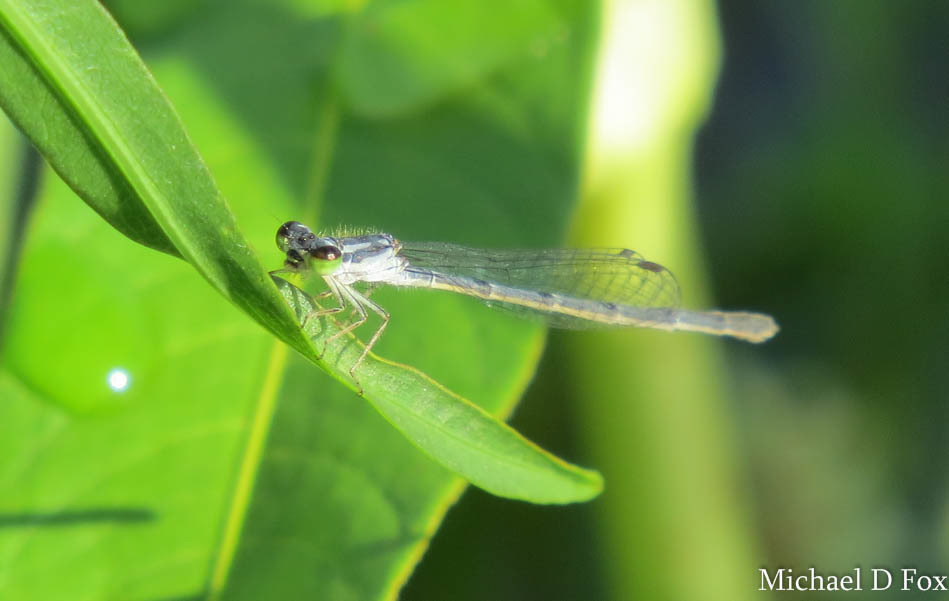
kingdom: Animalia
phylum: Arthropoda
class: Insecta
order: Odonata
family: Coenagrionidae
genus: Ischnura
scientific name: Ischnura posita
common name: Fragile forktail
